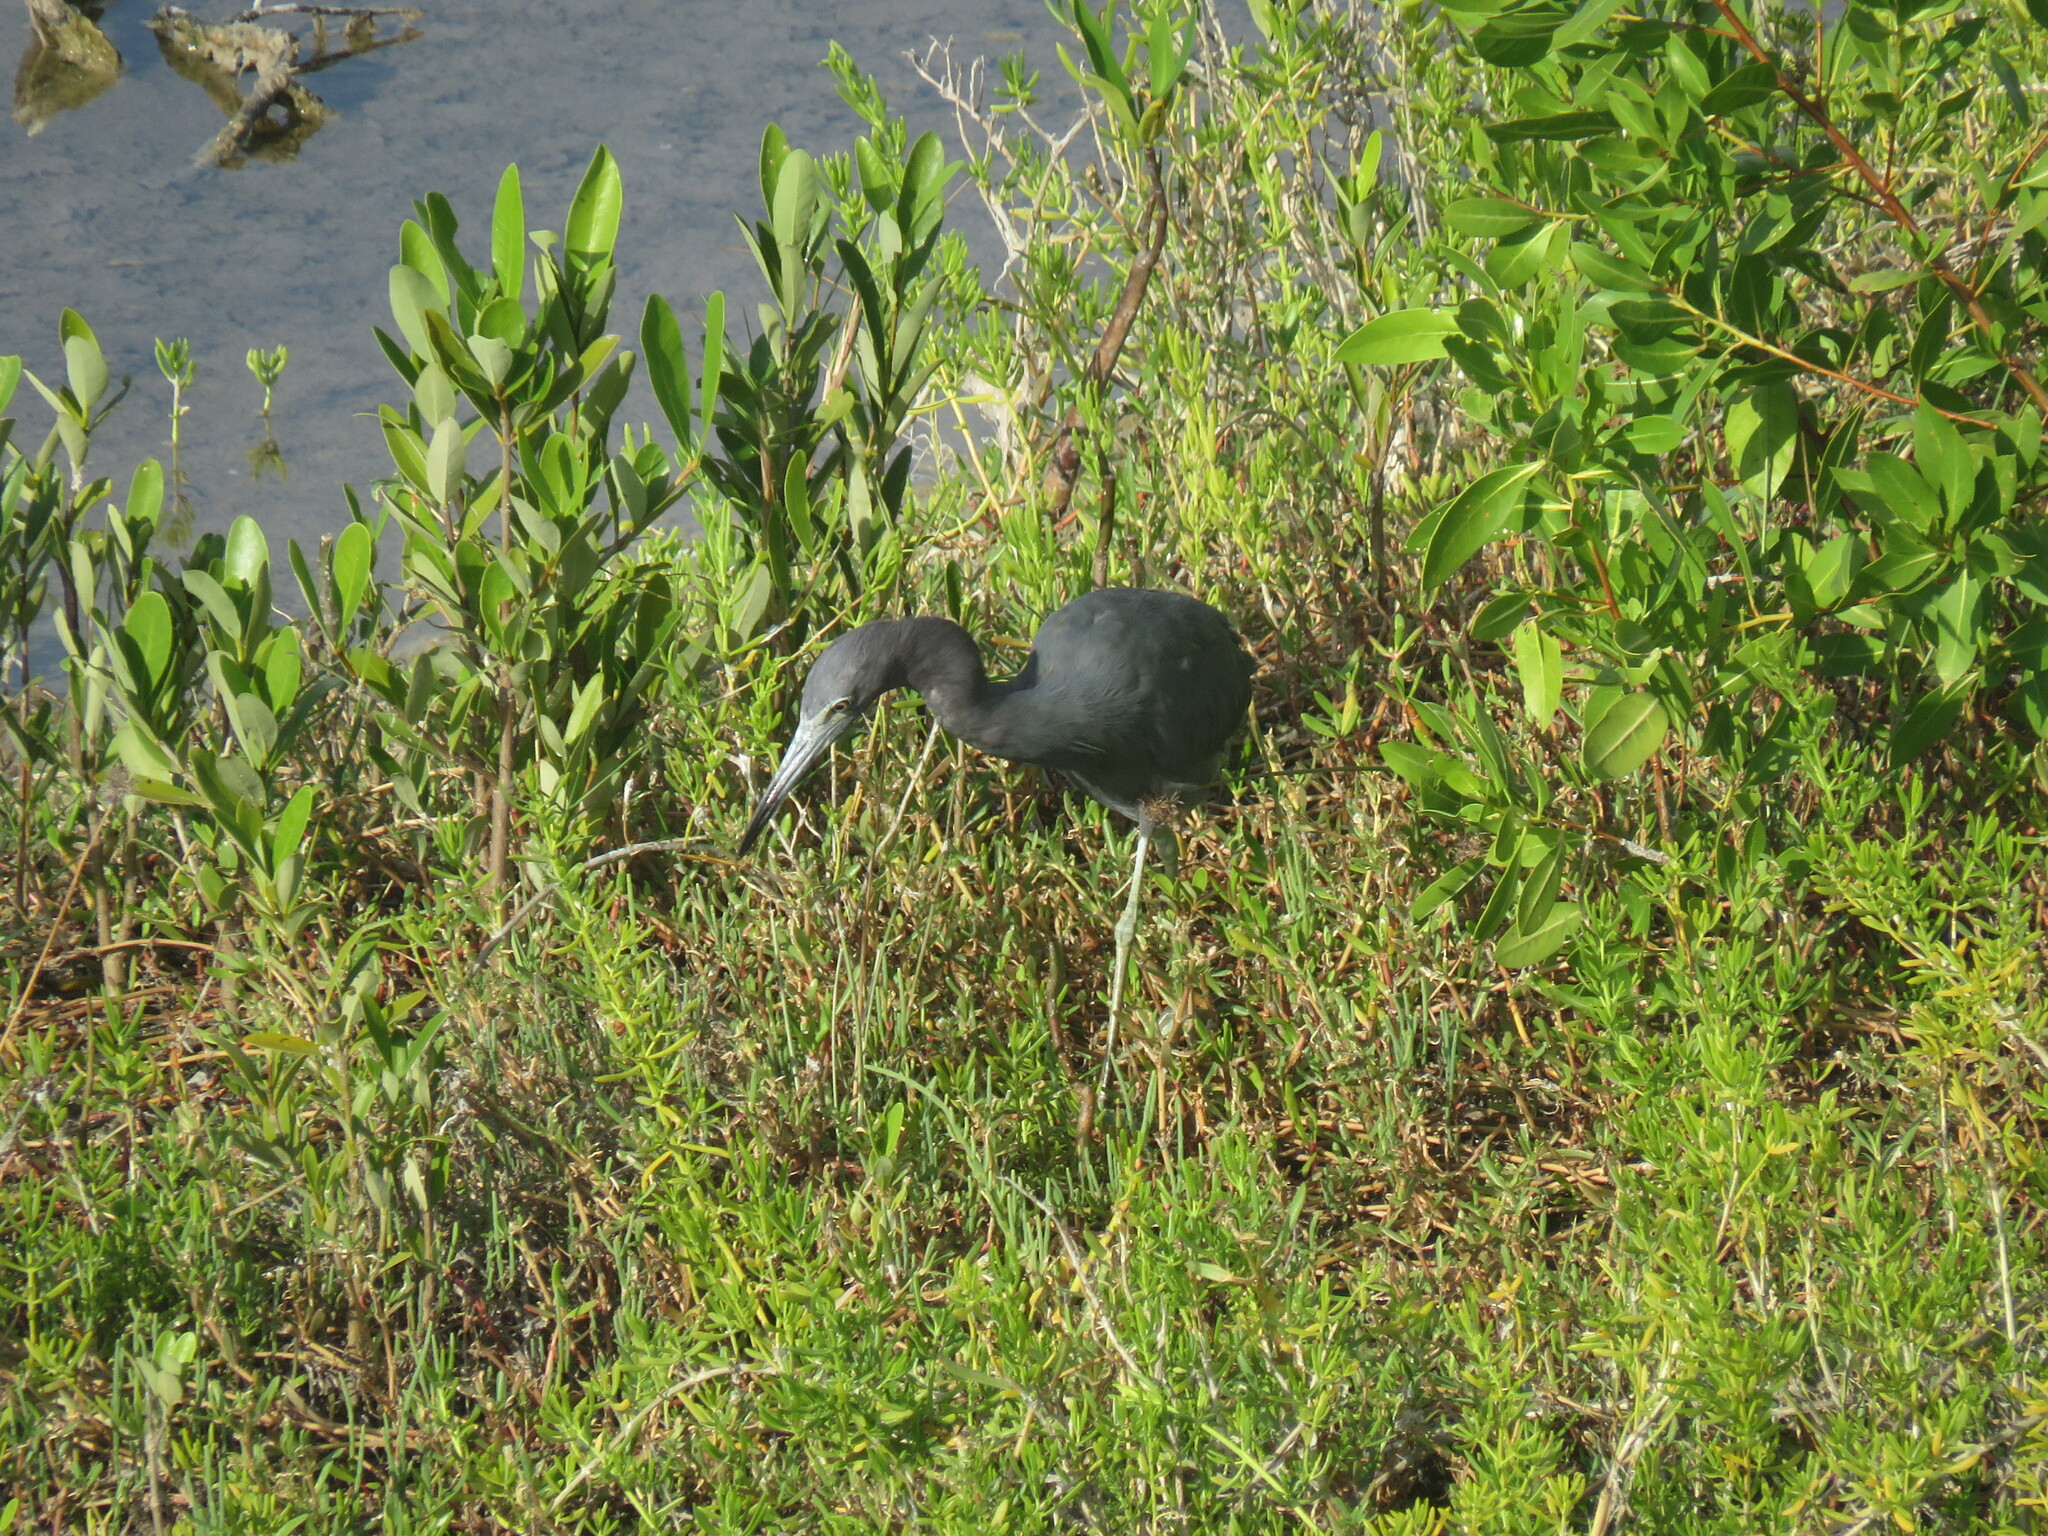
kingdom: Animalia
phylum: Chordata
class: Aves
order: Pelecaniformes
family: Ardeidae
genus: Egretta
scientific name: Egretta caerulea
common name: Little blue heron
